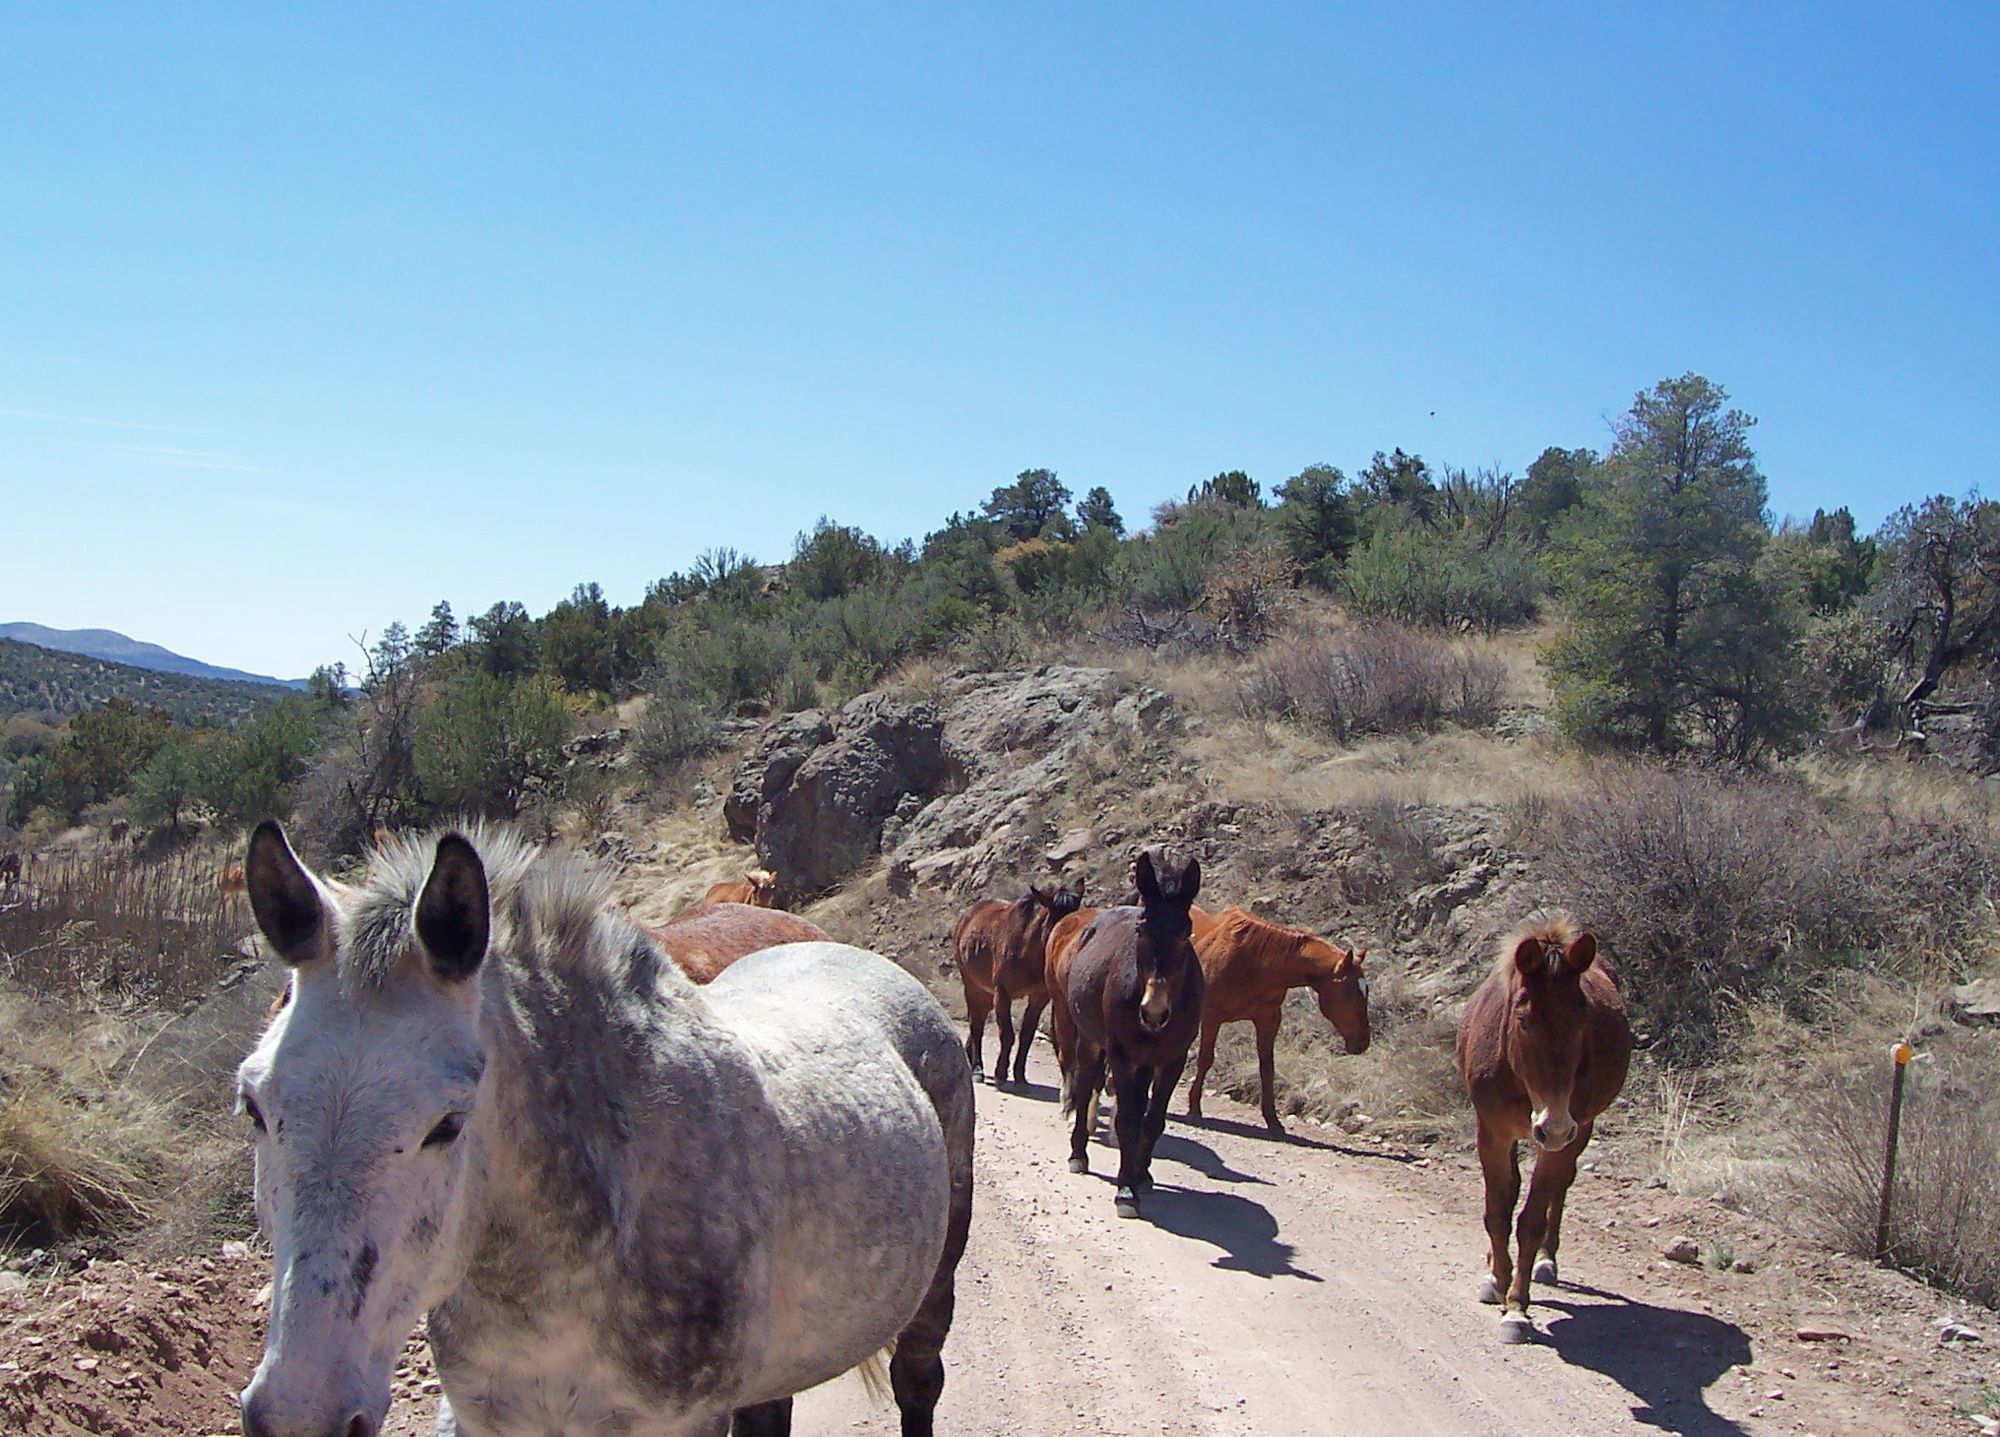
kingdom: Animalia
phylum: Chordata
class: Mammalia
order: Perissodactyla
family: Equidae
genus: Equus
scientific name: Equus caballus
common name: Horse
